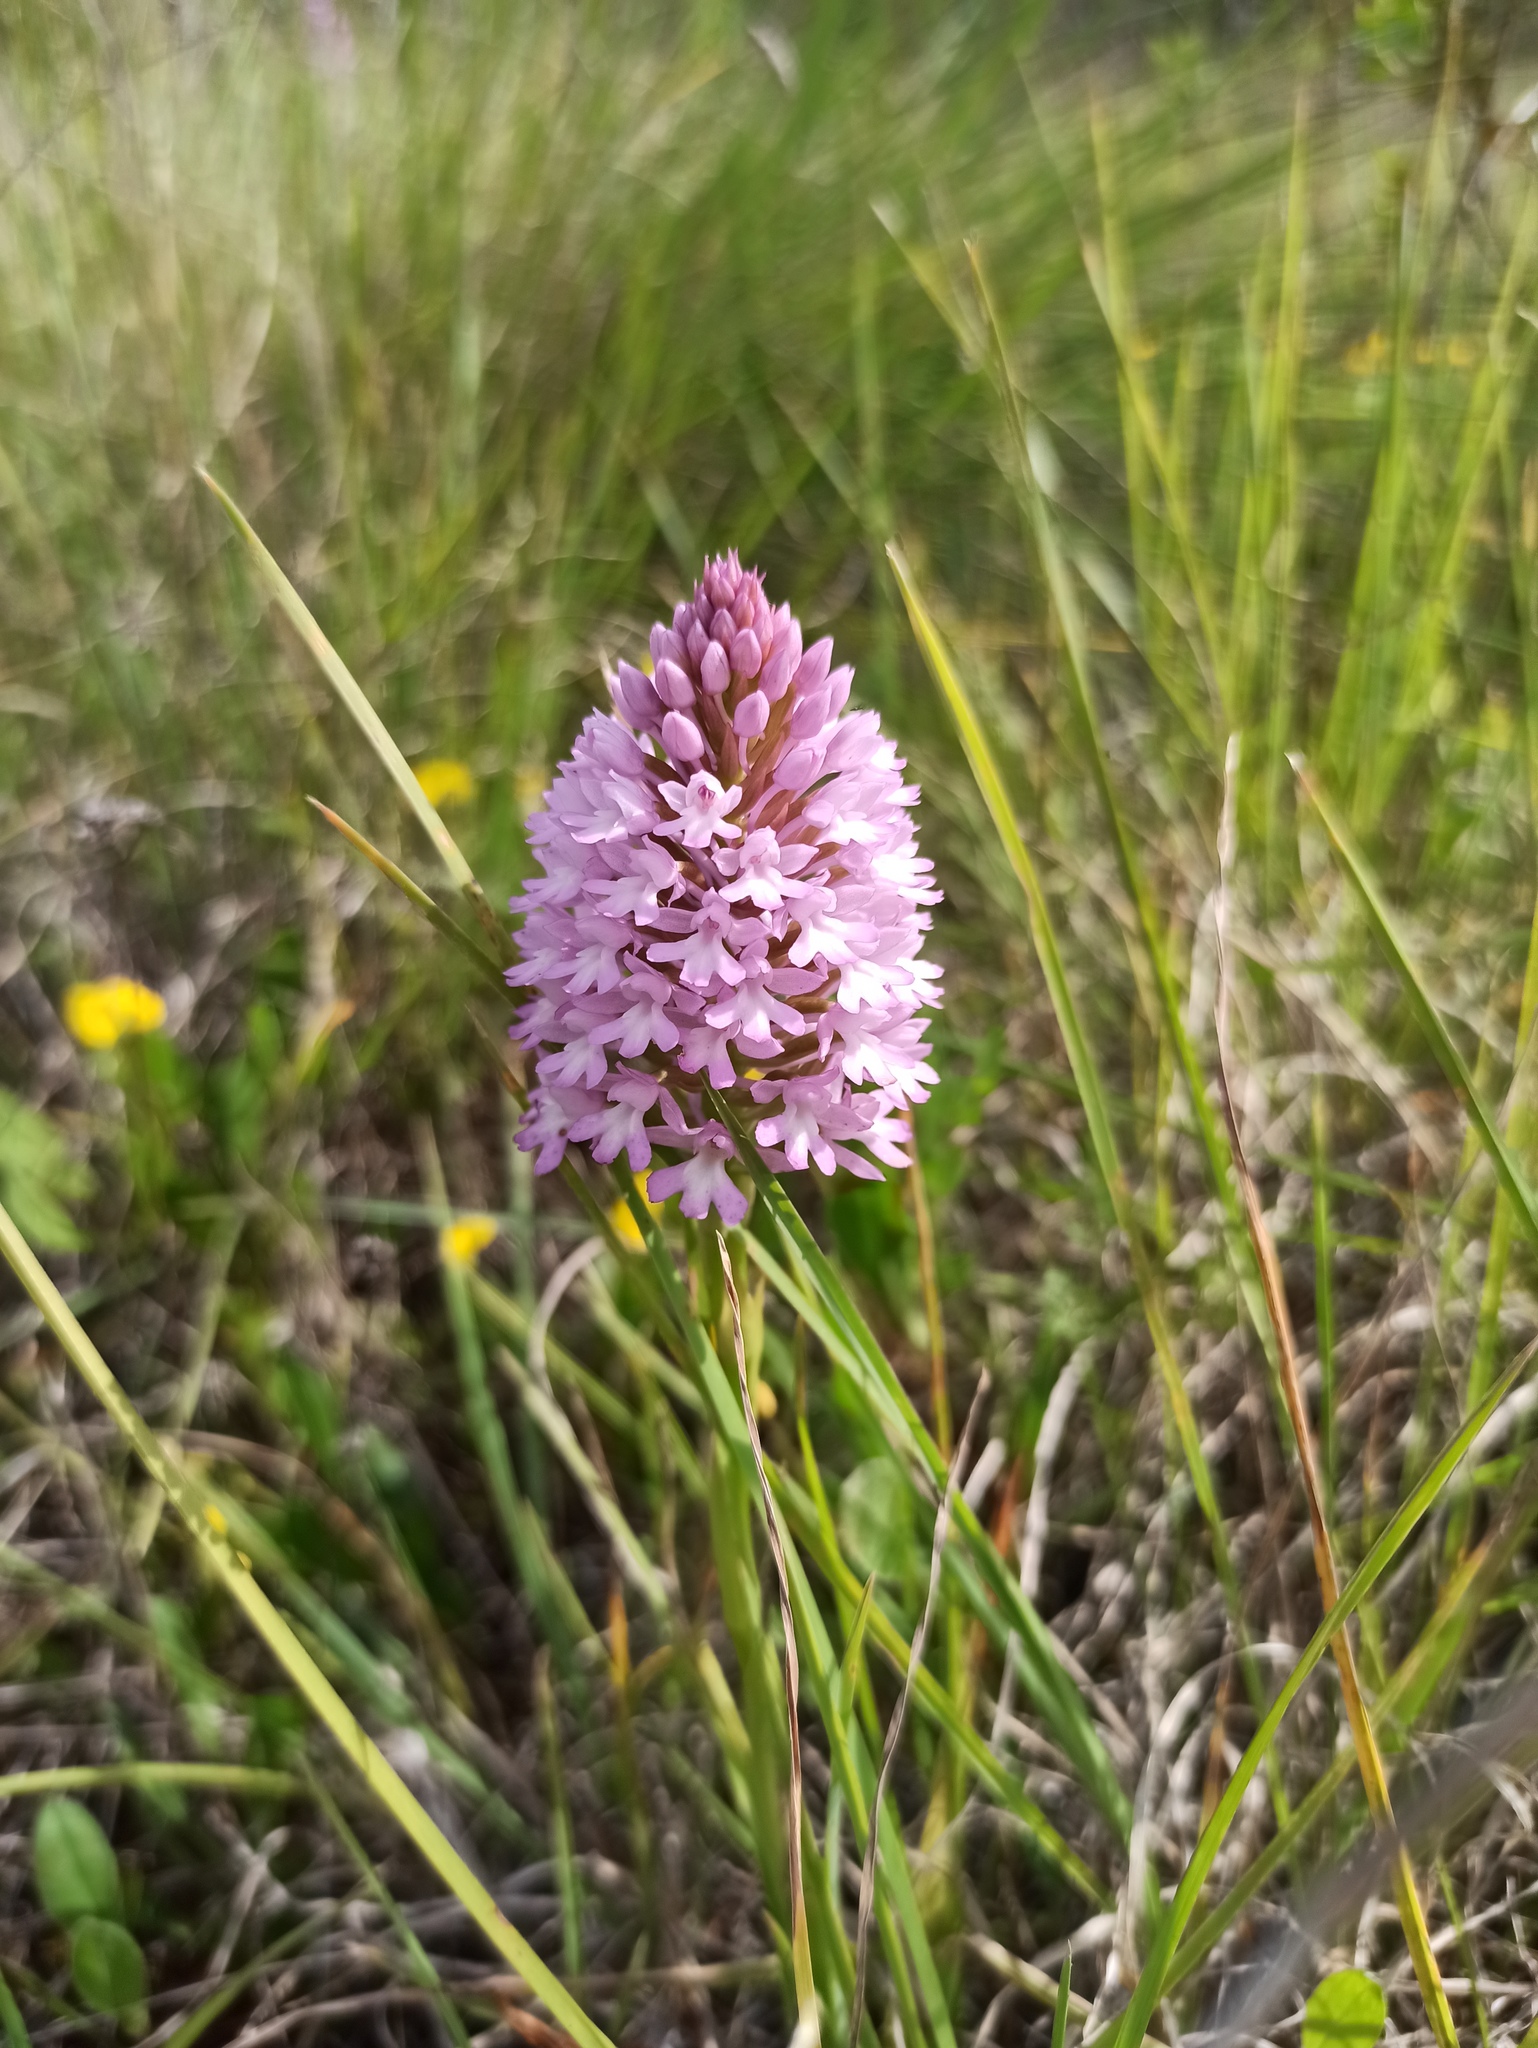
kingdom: Plantae
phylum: Tracheophyta
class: Liliopsida
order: Asparagales
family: Orchidaceae
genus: Anacamptis
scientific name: Anacamptis pyramidalis
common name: Pyramidal orchid
